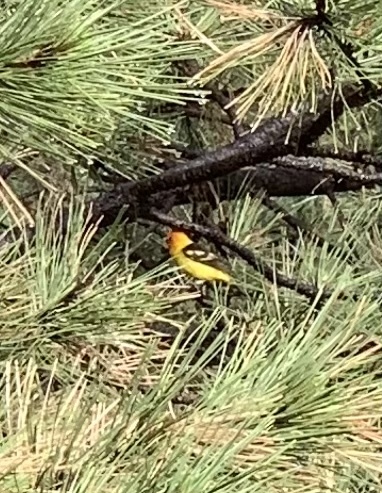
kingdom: Animalia
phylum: Chordata
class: Aves
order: Passeriformes
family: Cardinalidae
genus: Piranga
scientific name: Piranga ludoviciana
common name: Western tanager
